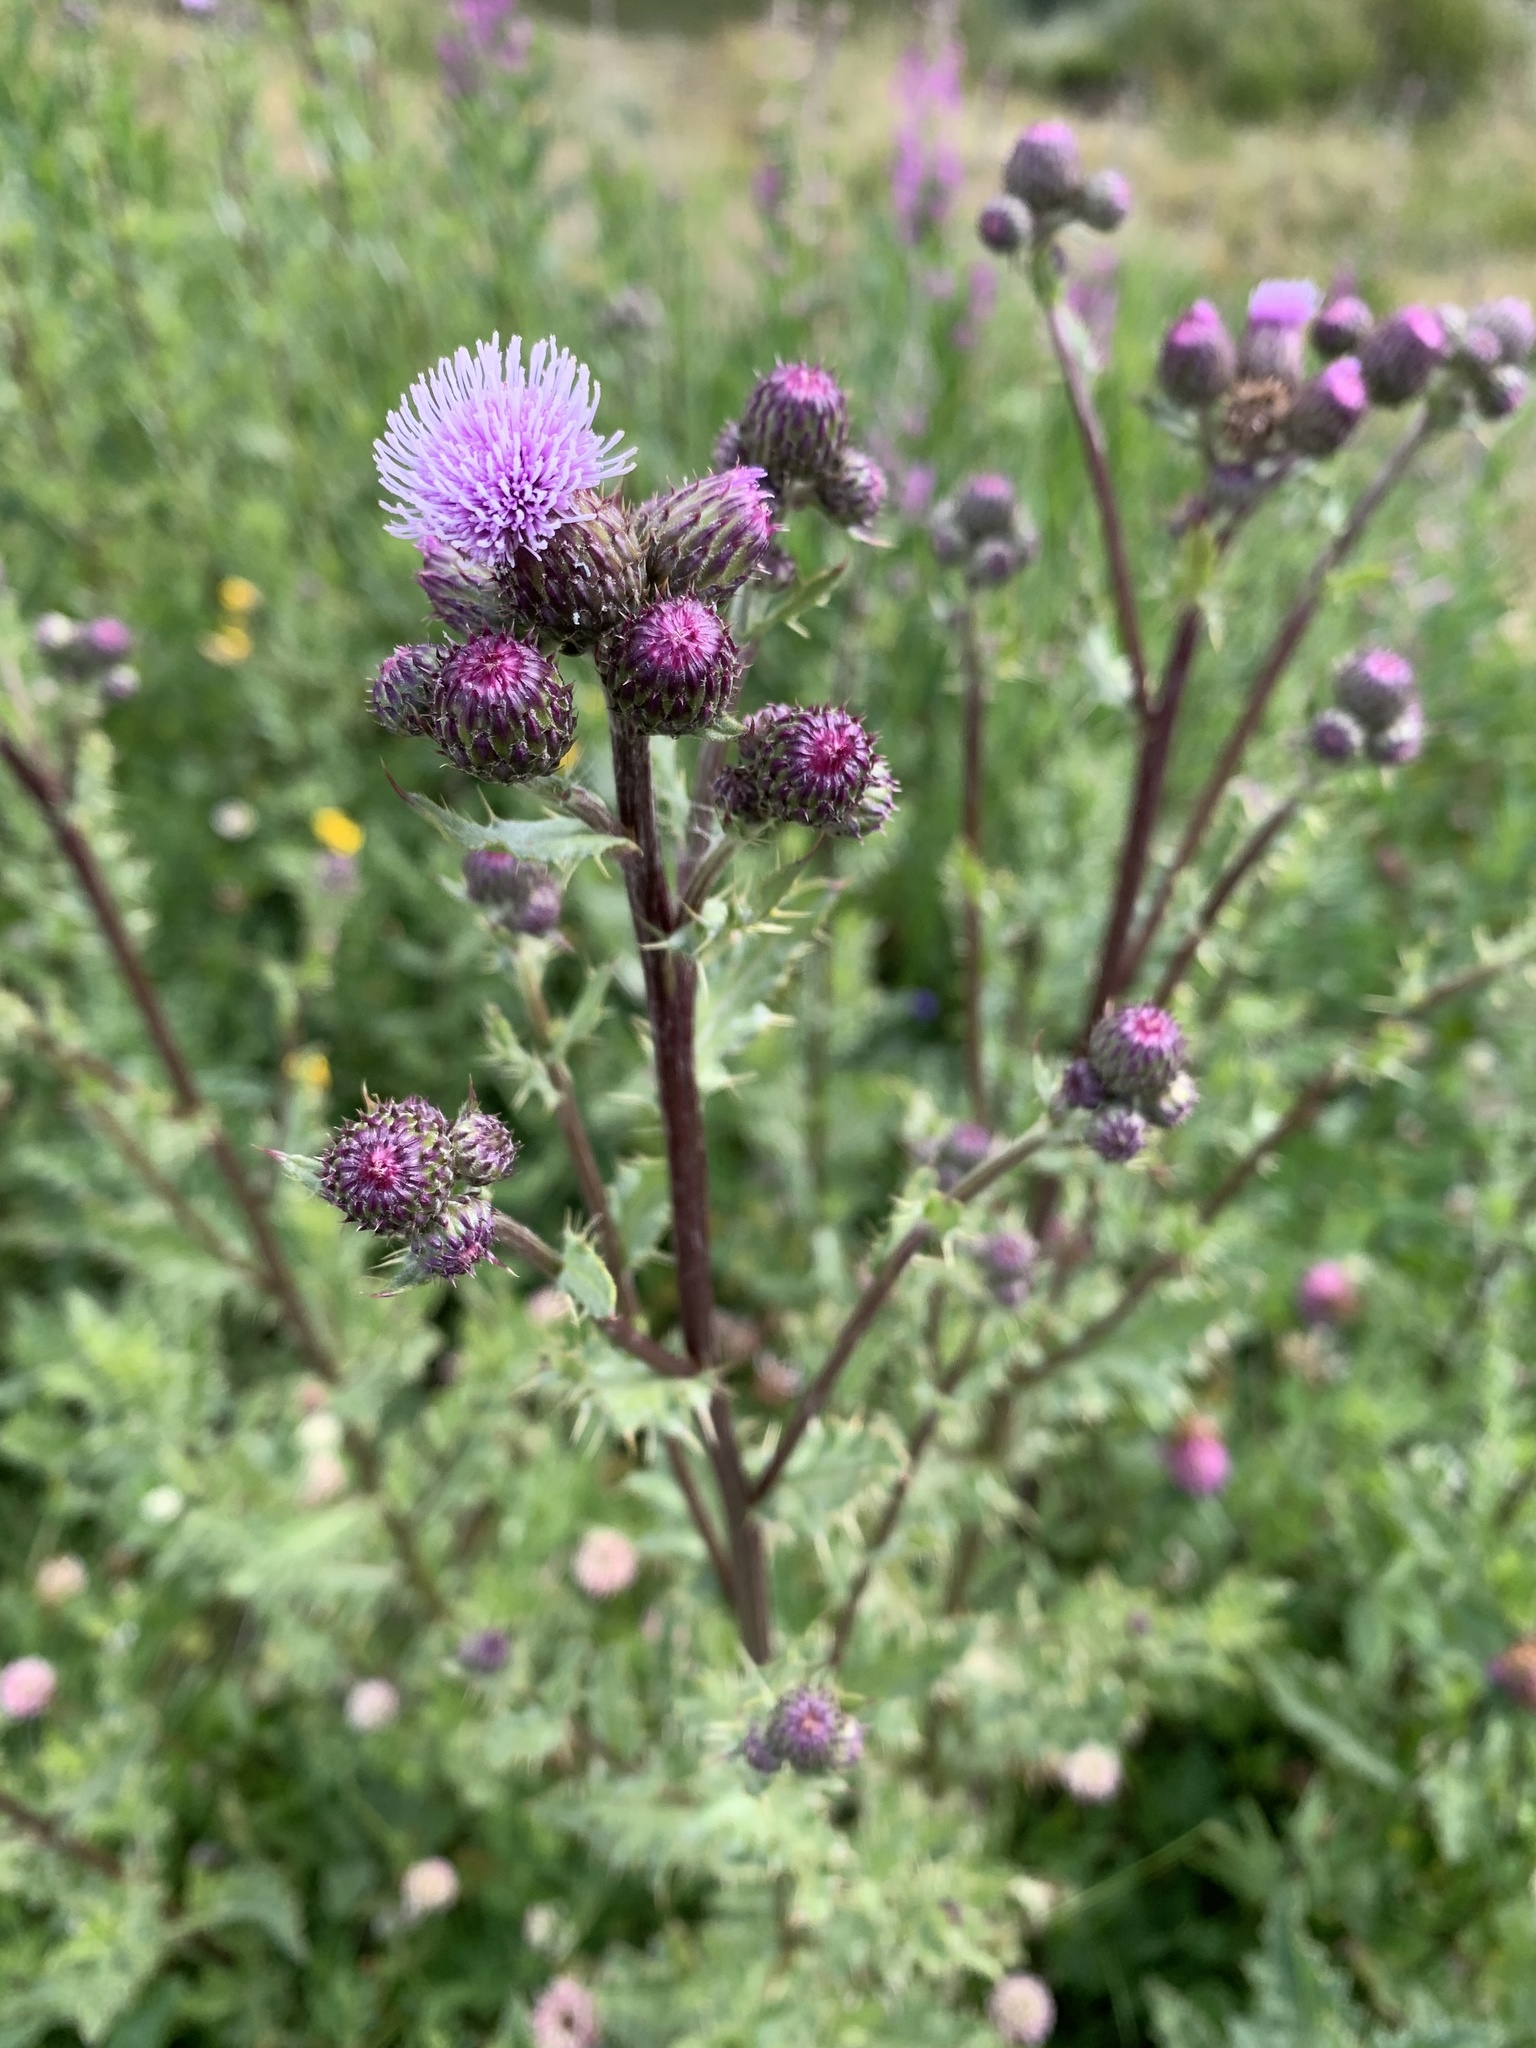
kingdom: Plantae
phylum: Tracheophyta
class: Magnoliopsida
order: Asterales
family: Asteraceae
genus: Cirsium
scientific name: Cirsium arvense
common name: Creeping thistle
